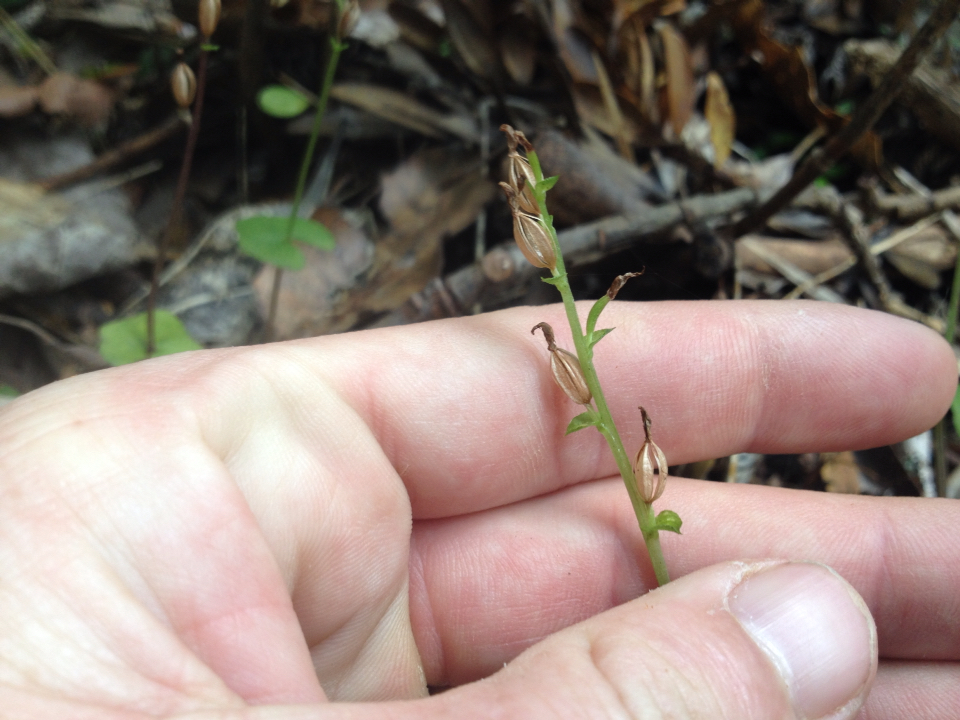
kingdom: Plantae
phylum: Tracheophyta
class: Liliopsida
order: Asparagales
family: Orchidaceae
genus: Acianthus
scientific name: Acianthus sinclairii
